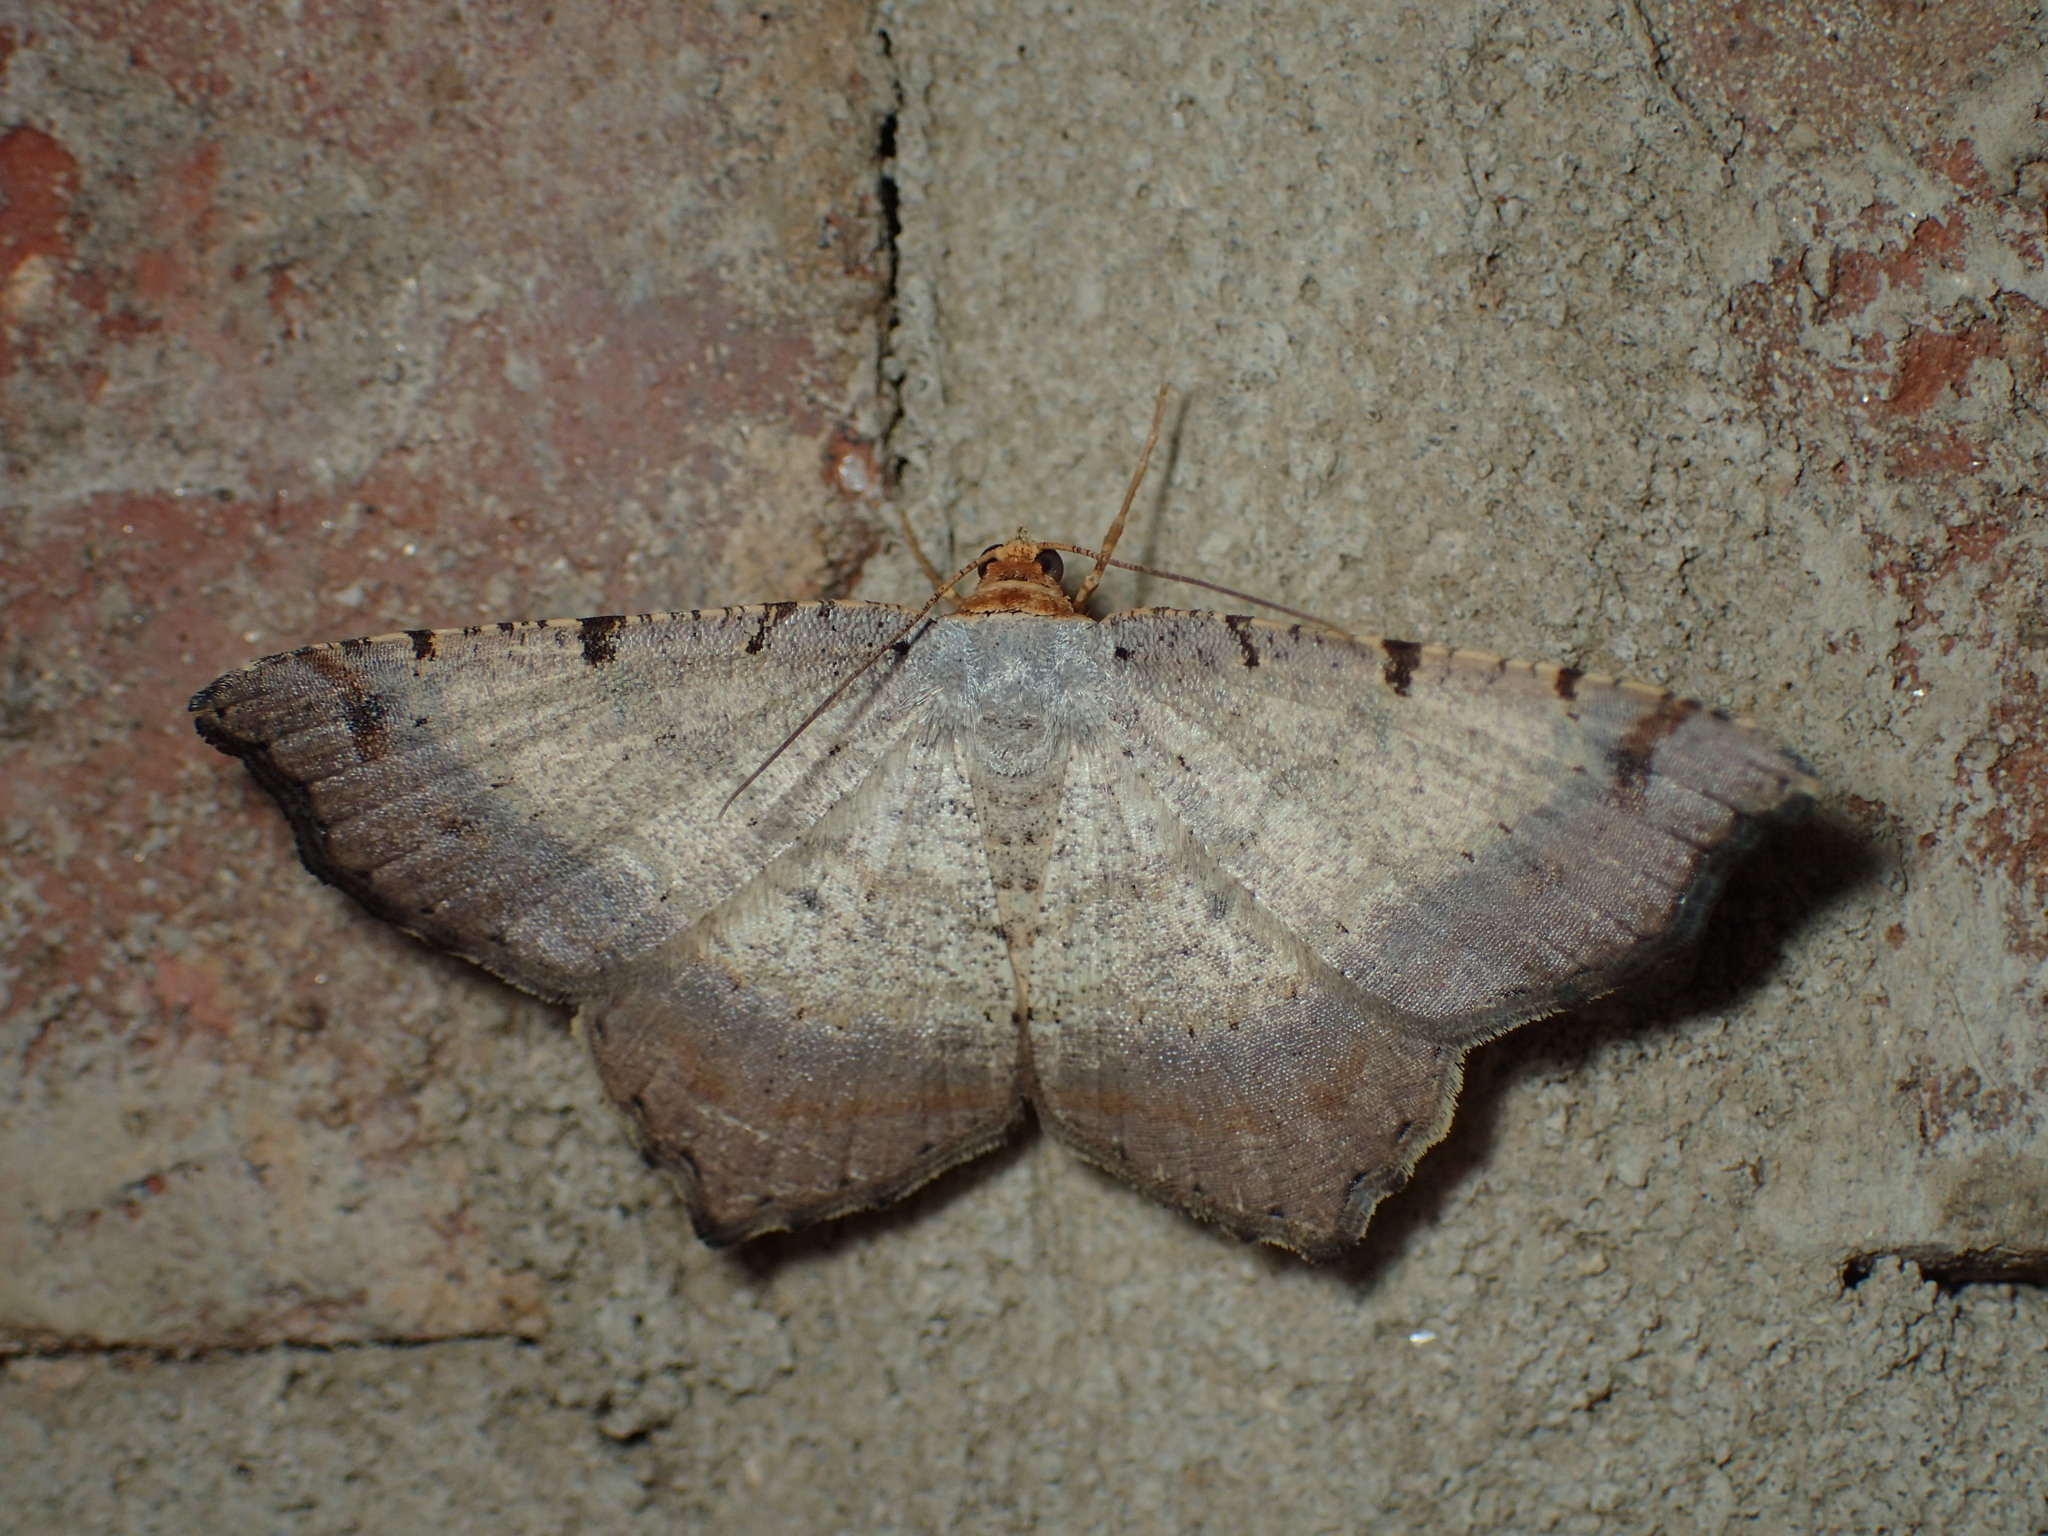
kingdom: Animalia
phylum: Arthropoda
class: Insecta
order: Lepidoptera
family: Geometridae
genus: Macaria
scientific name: Macaria bicolorata
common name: Dingy angle
